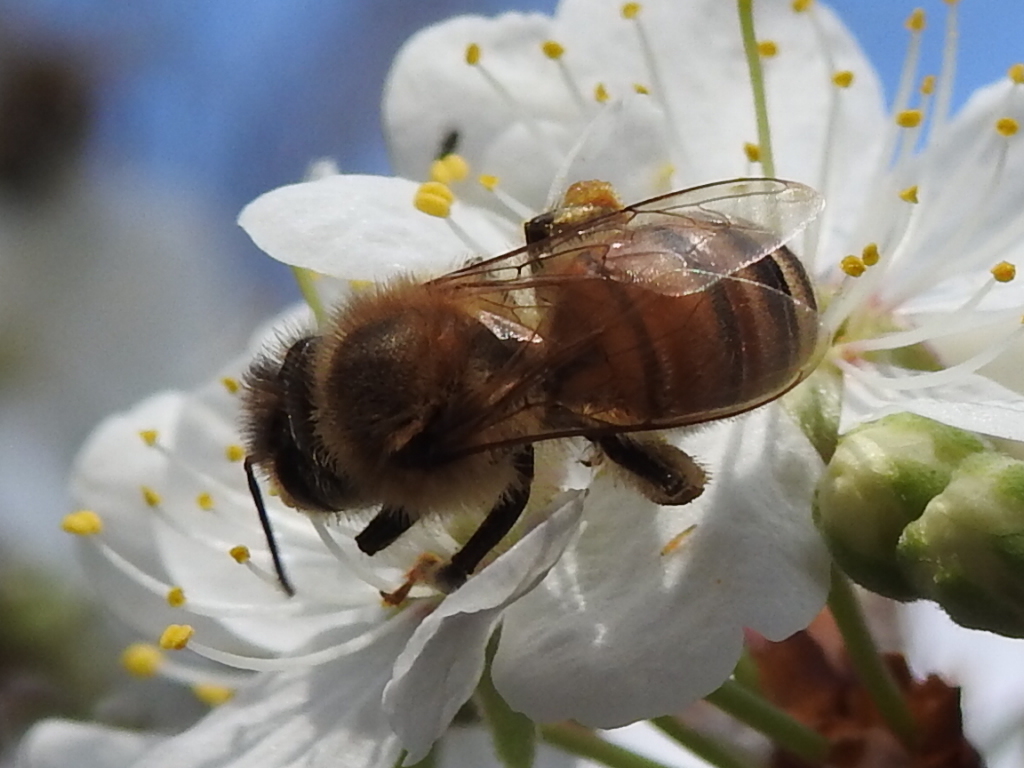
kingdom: Animalia
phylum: Arthropoda
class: Insecta
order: Hymenoptera
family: Apidae
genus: Apis
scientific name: Apis mellifera
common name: Honey bee
